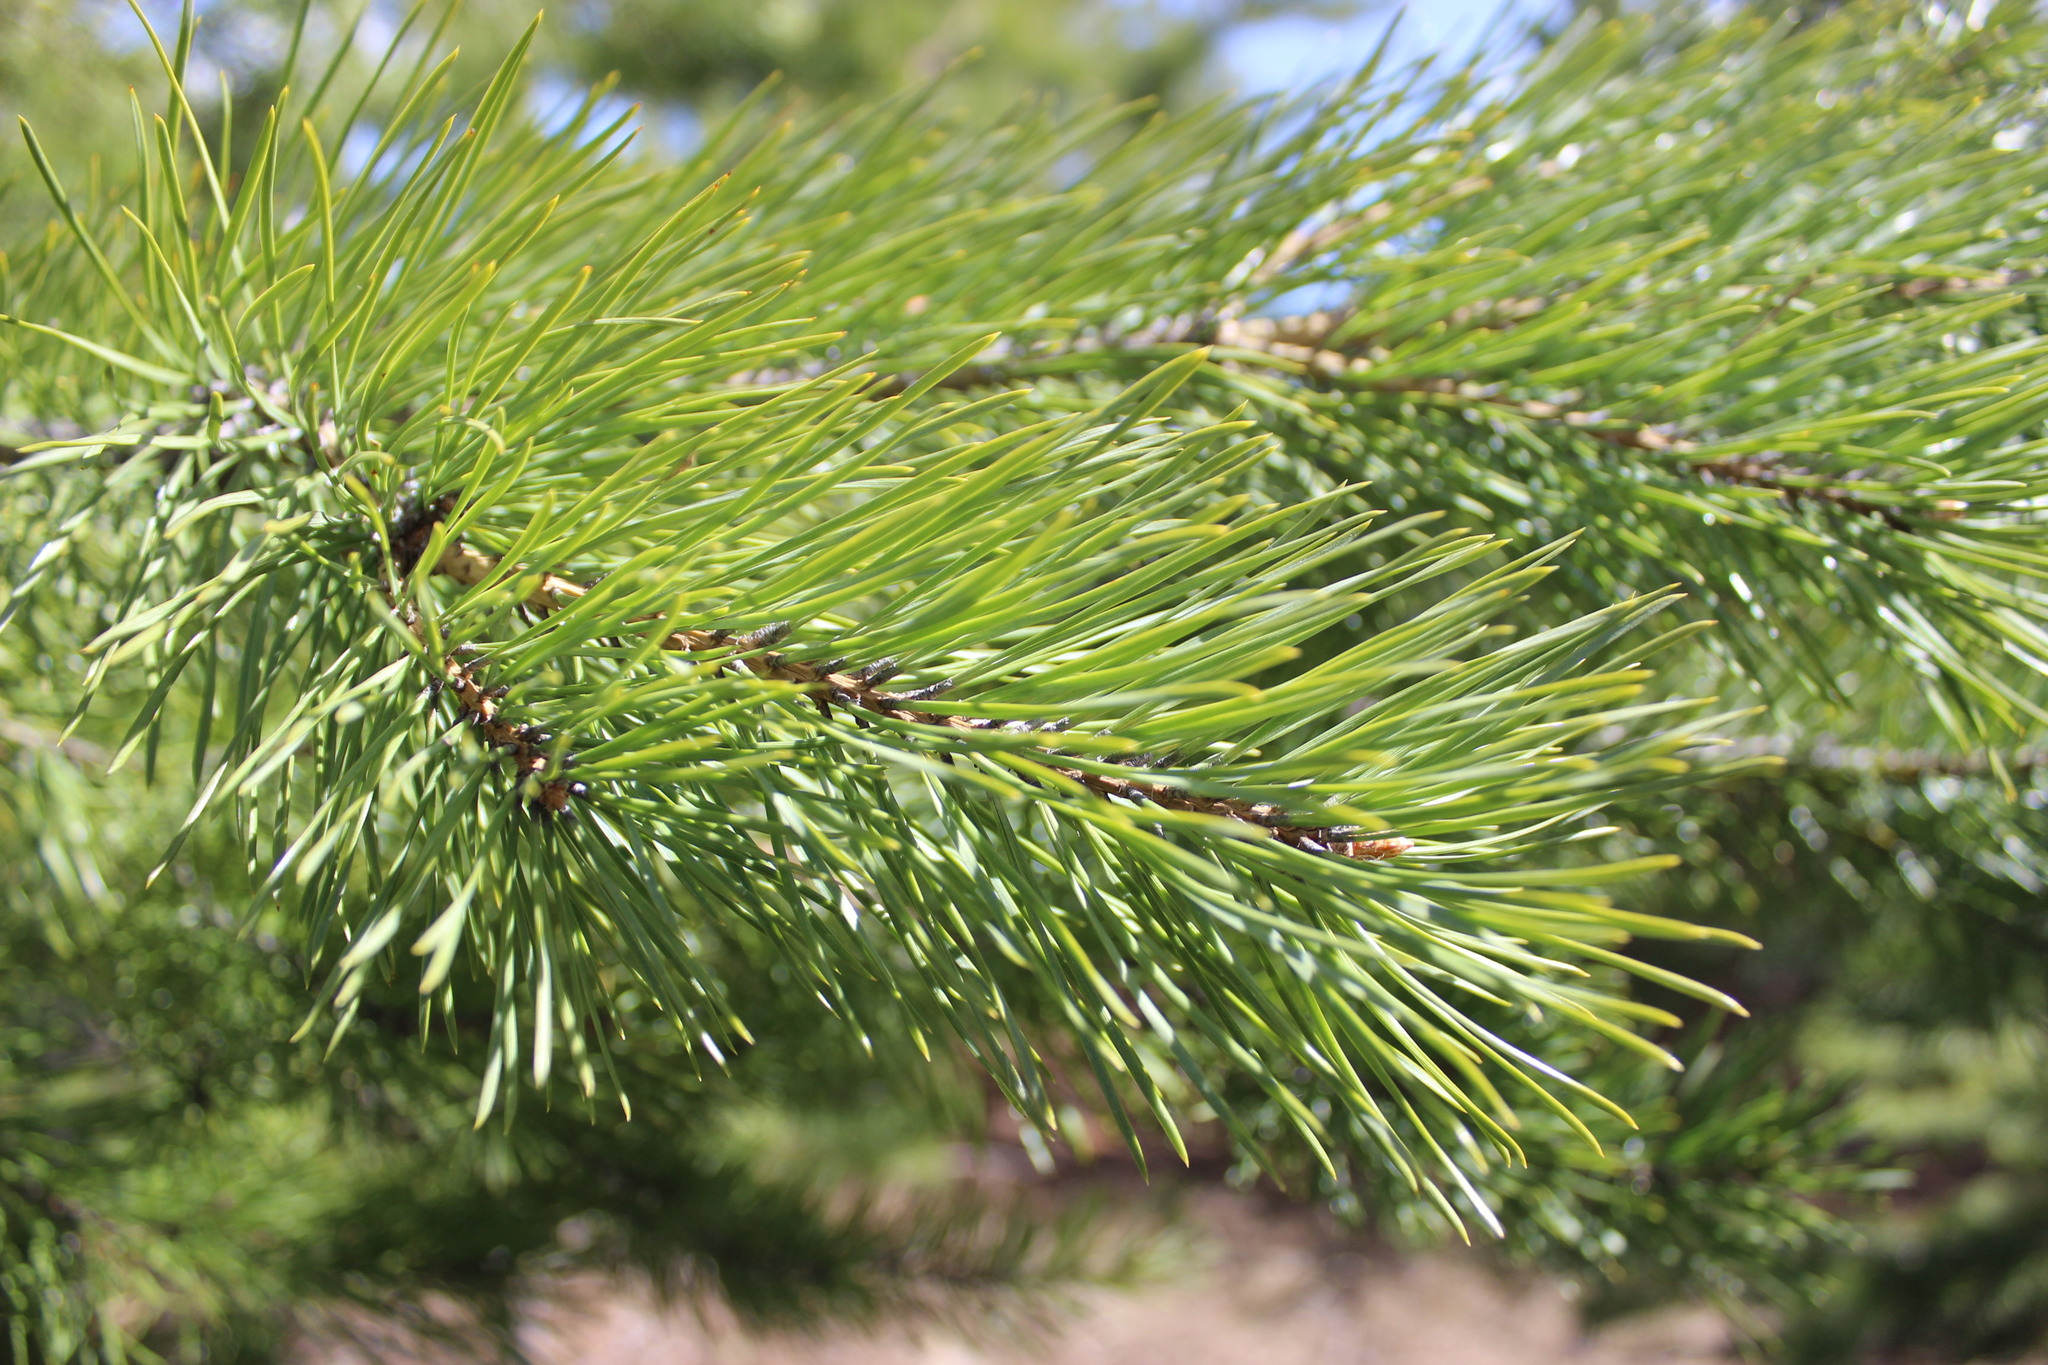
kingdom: Plantae
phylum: Tracheophyta
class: Pinopsida
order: Pinales
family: Pinaceae
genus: Pinus
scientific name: Pinus sylvestris
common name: Scots pine
